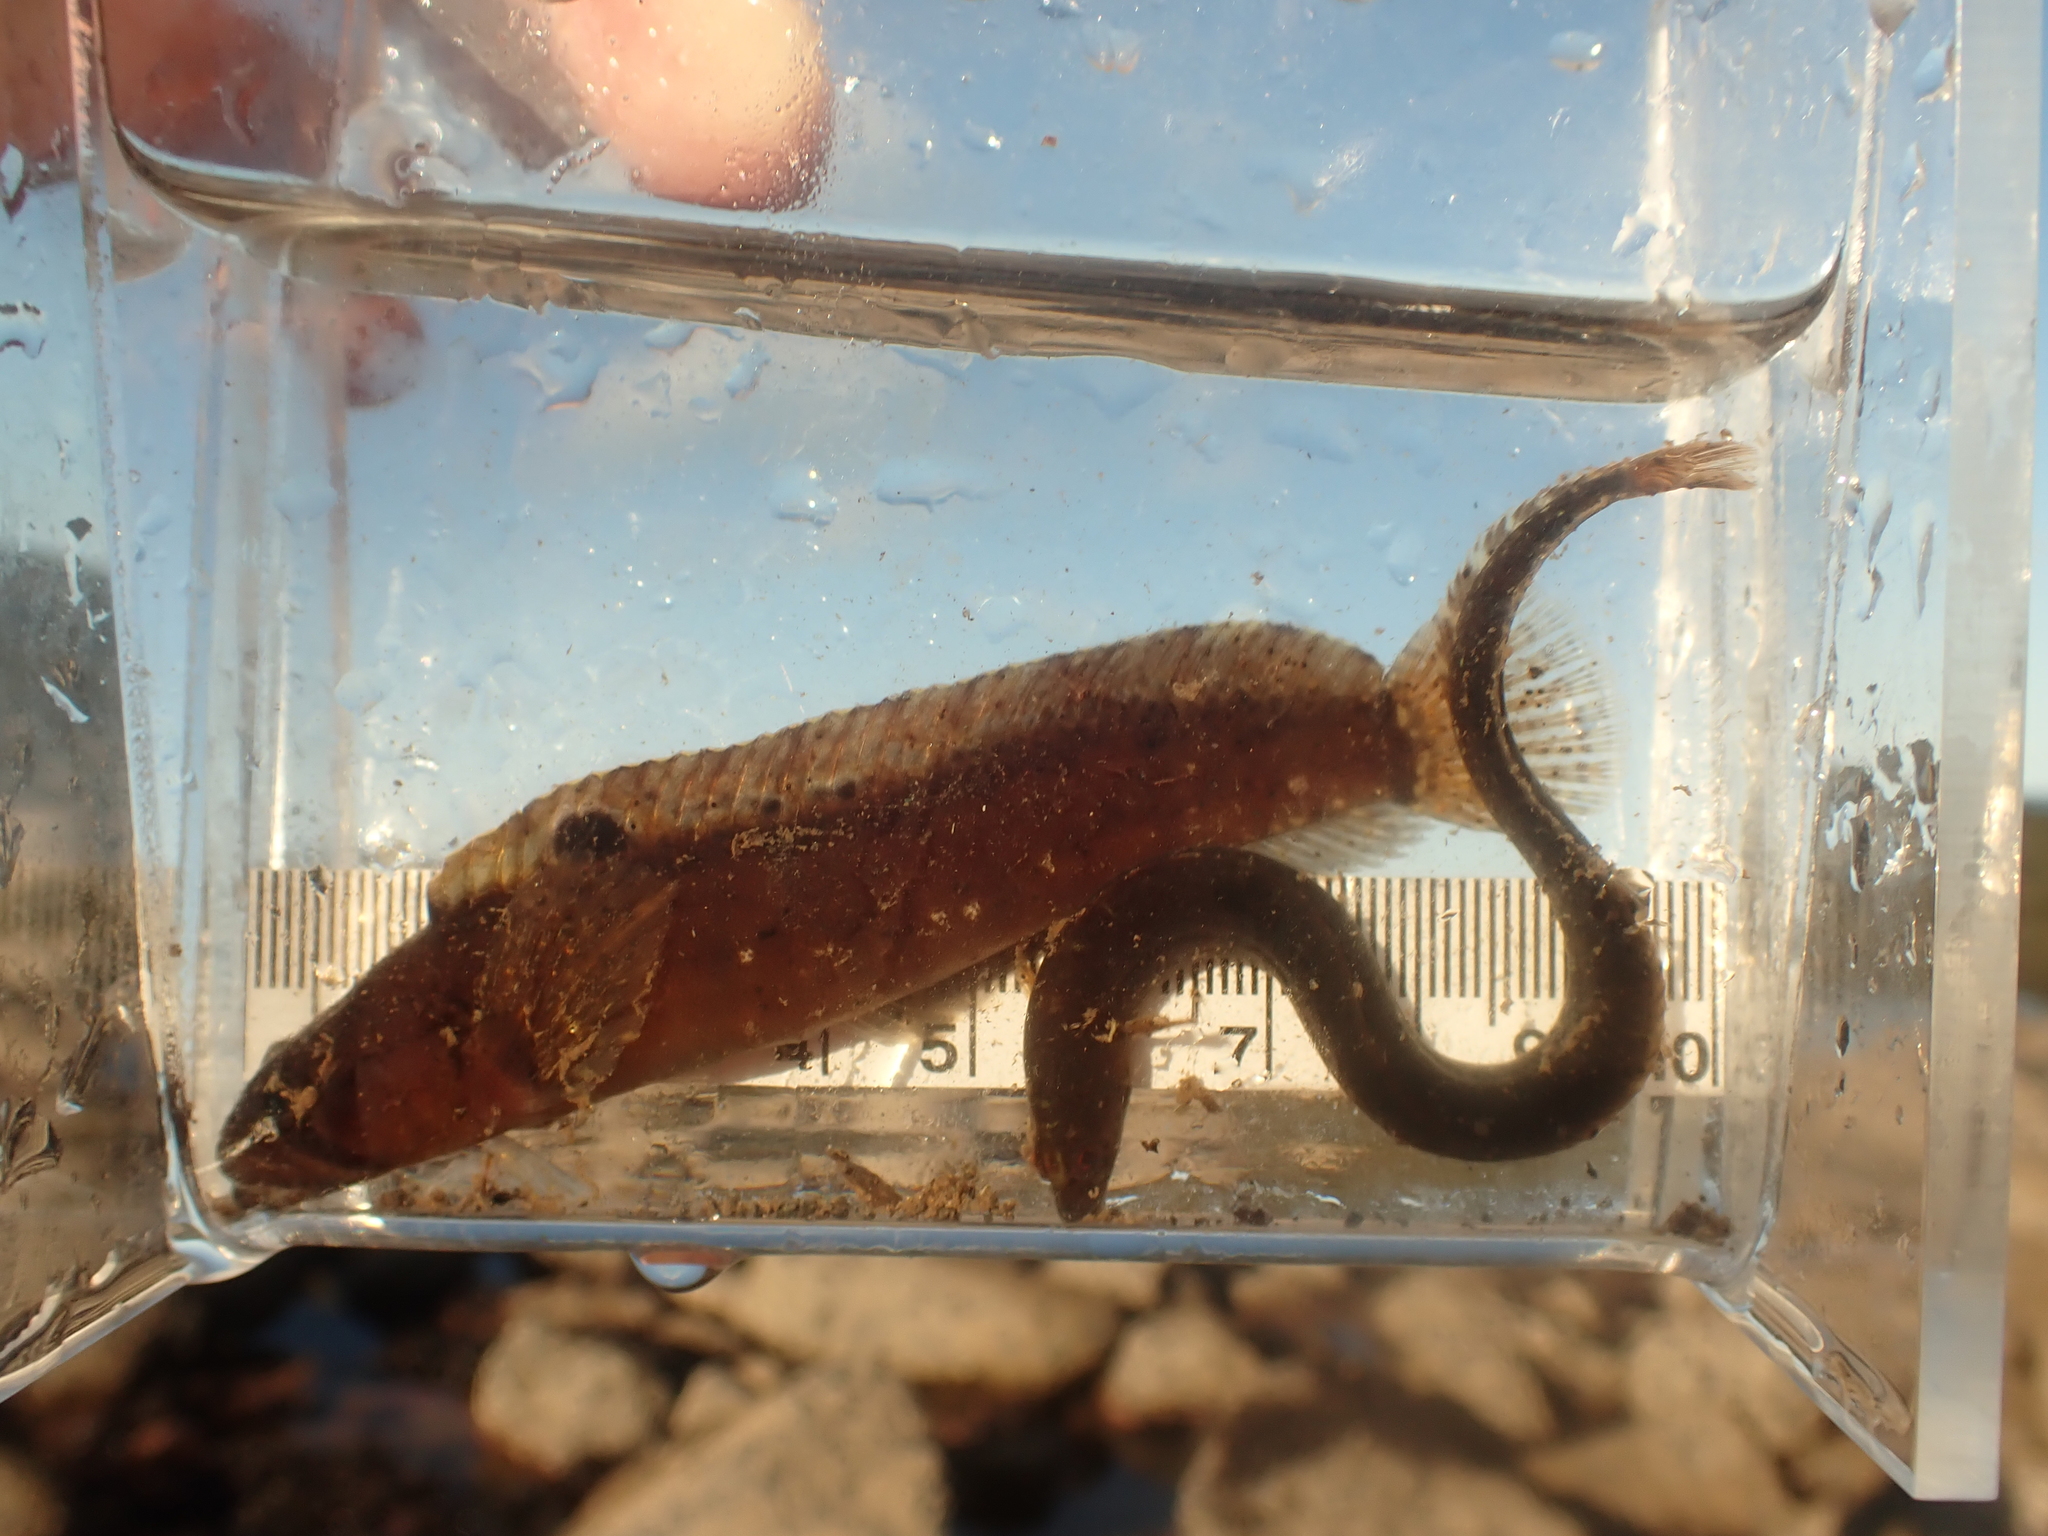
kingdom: Animalia
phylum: Chordata
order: Perciformes
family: Pholidae
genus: Pholis
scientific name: Pholis gunnellus
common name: Butterfish
